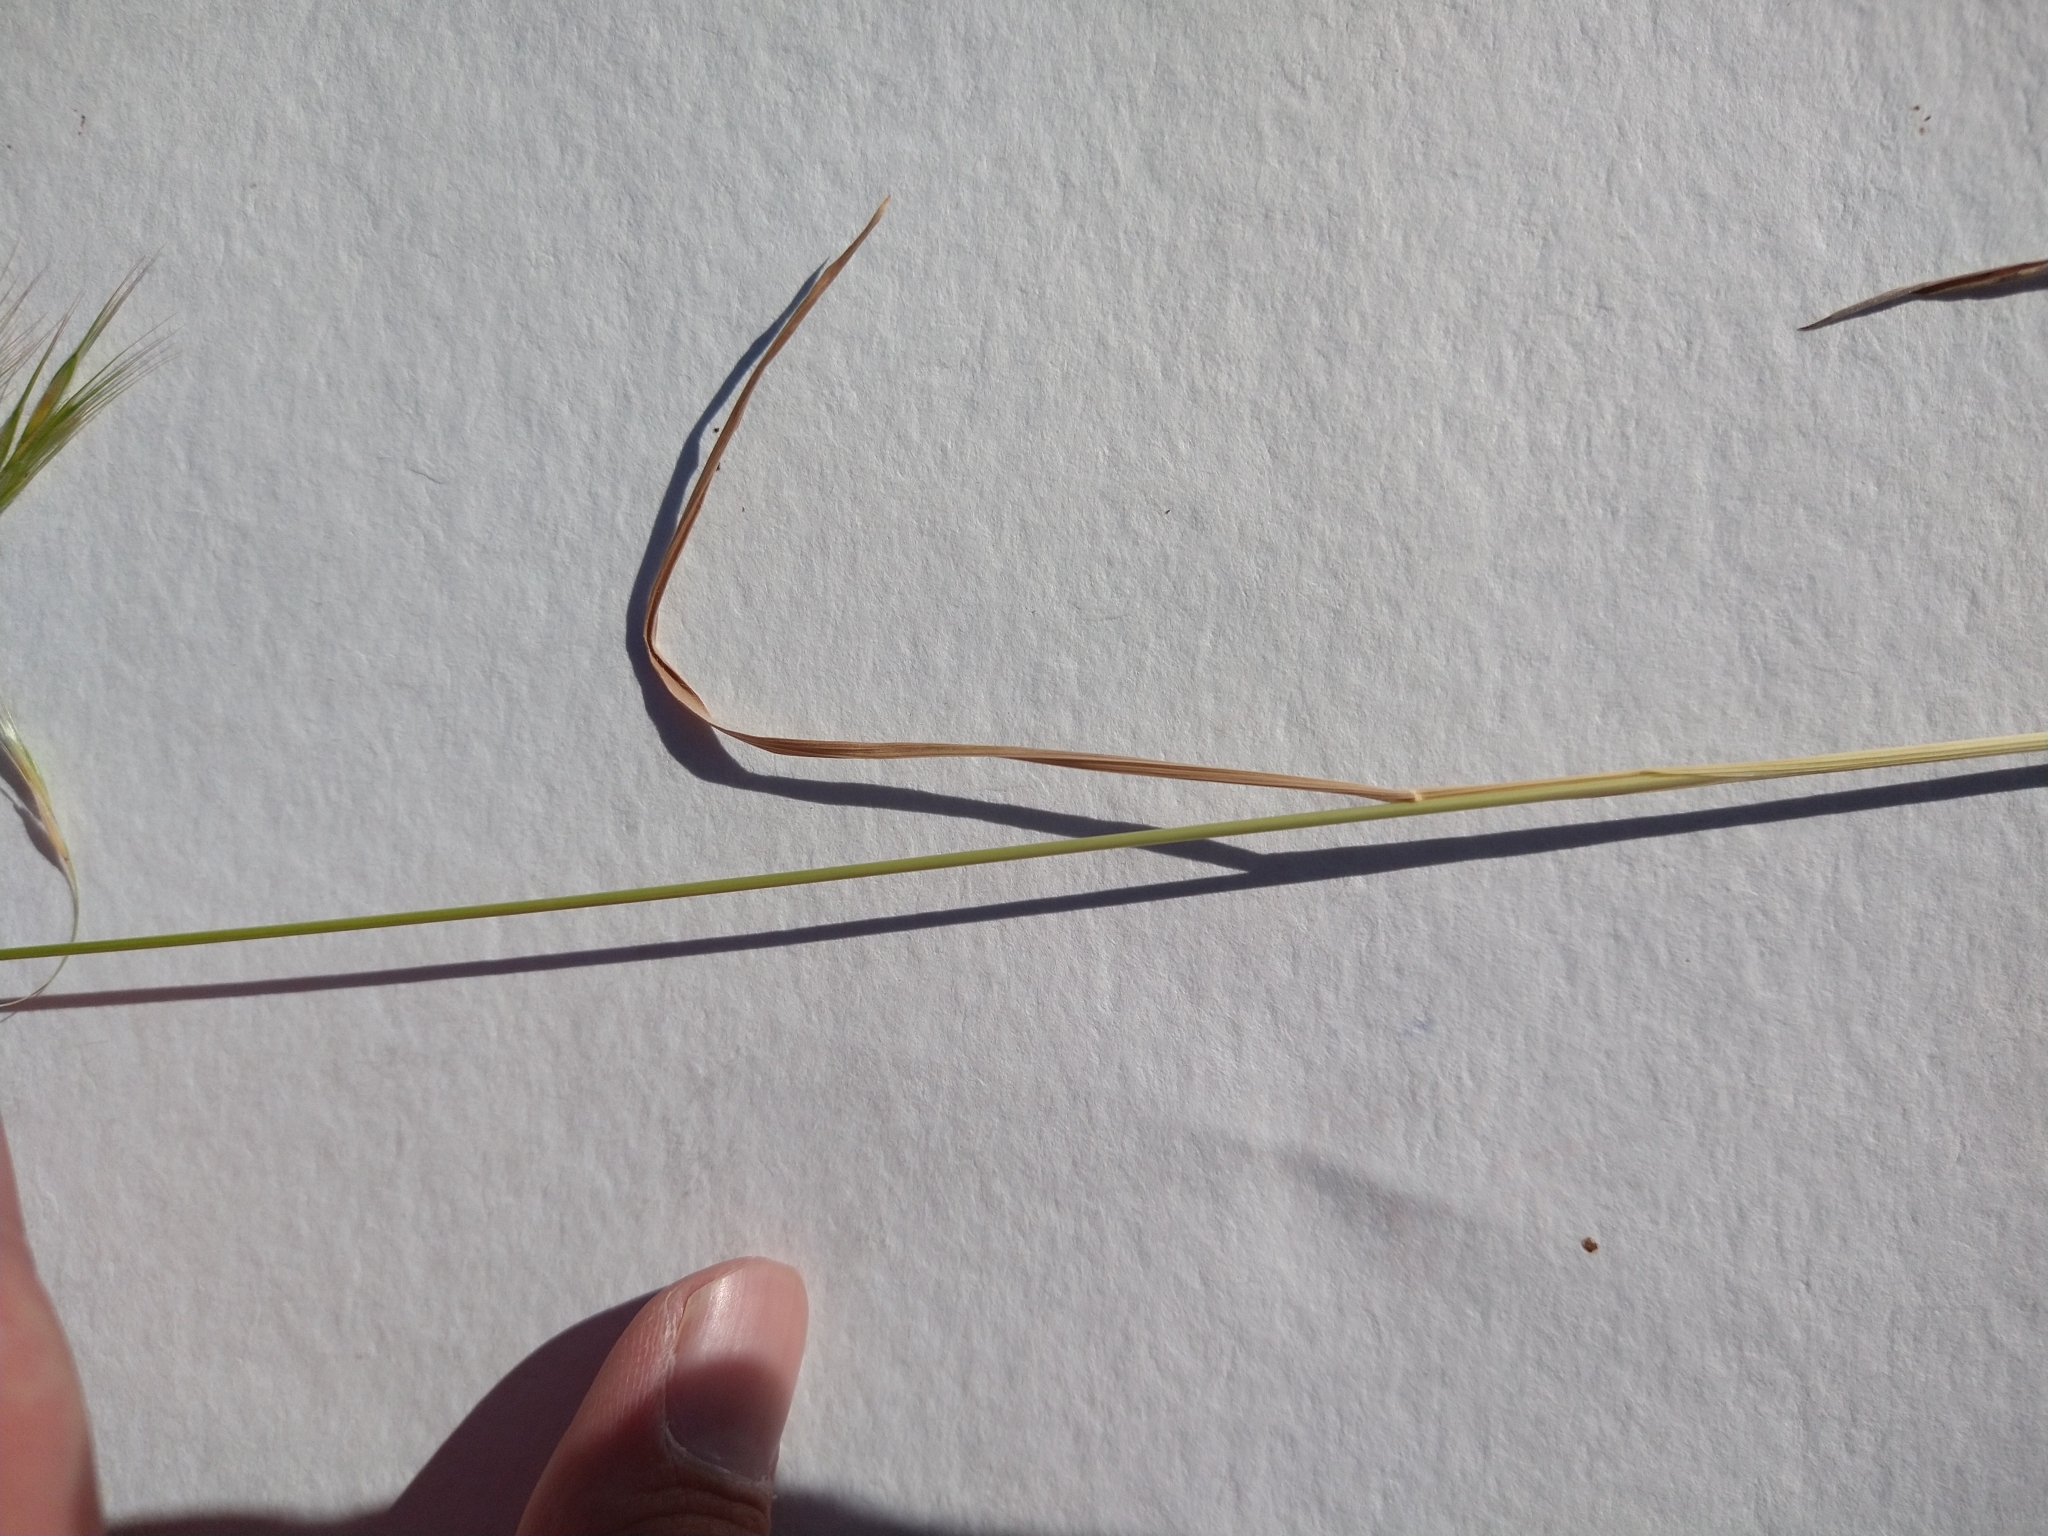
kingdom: Plantae
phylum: Tracheophyta
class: Liliopsida
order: Poales
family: Poaceae
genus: Bromus
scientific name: Bromus tectorum
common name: Cheatgrass
